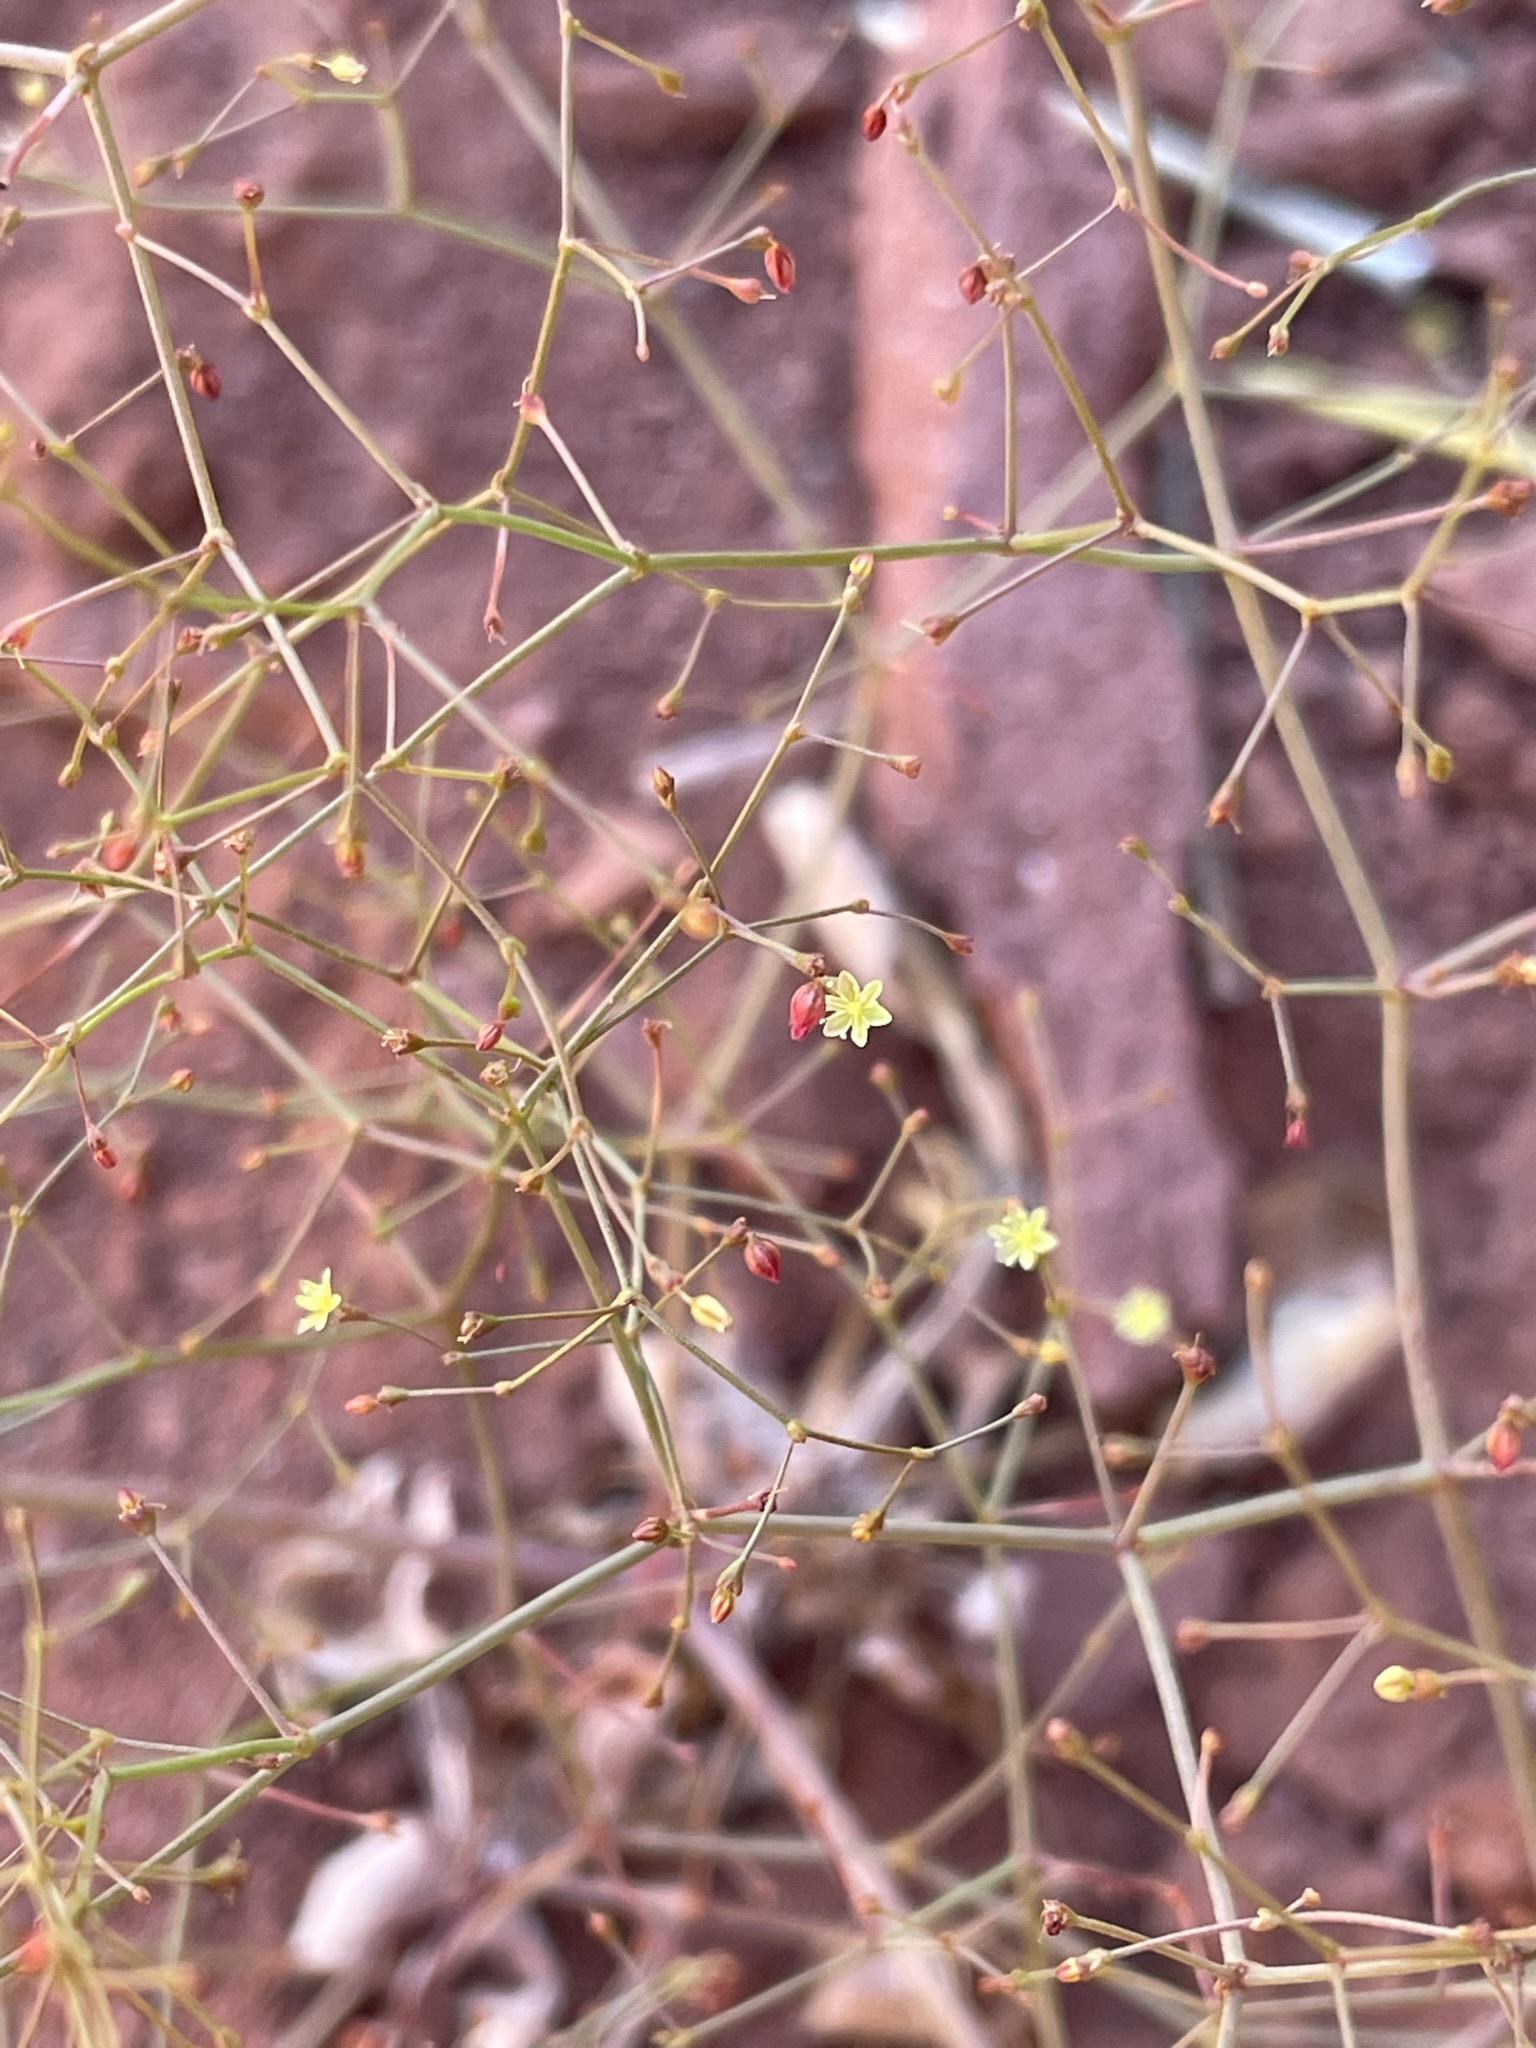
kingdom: Plantae
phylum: Tracheophyta
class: Magnoliopsida
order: Caryophyllales
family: Polygonaceae
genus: Eriogonum
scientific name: Eriogonum wetherillii
